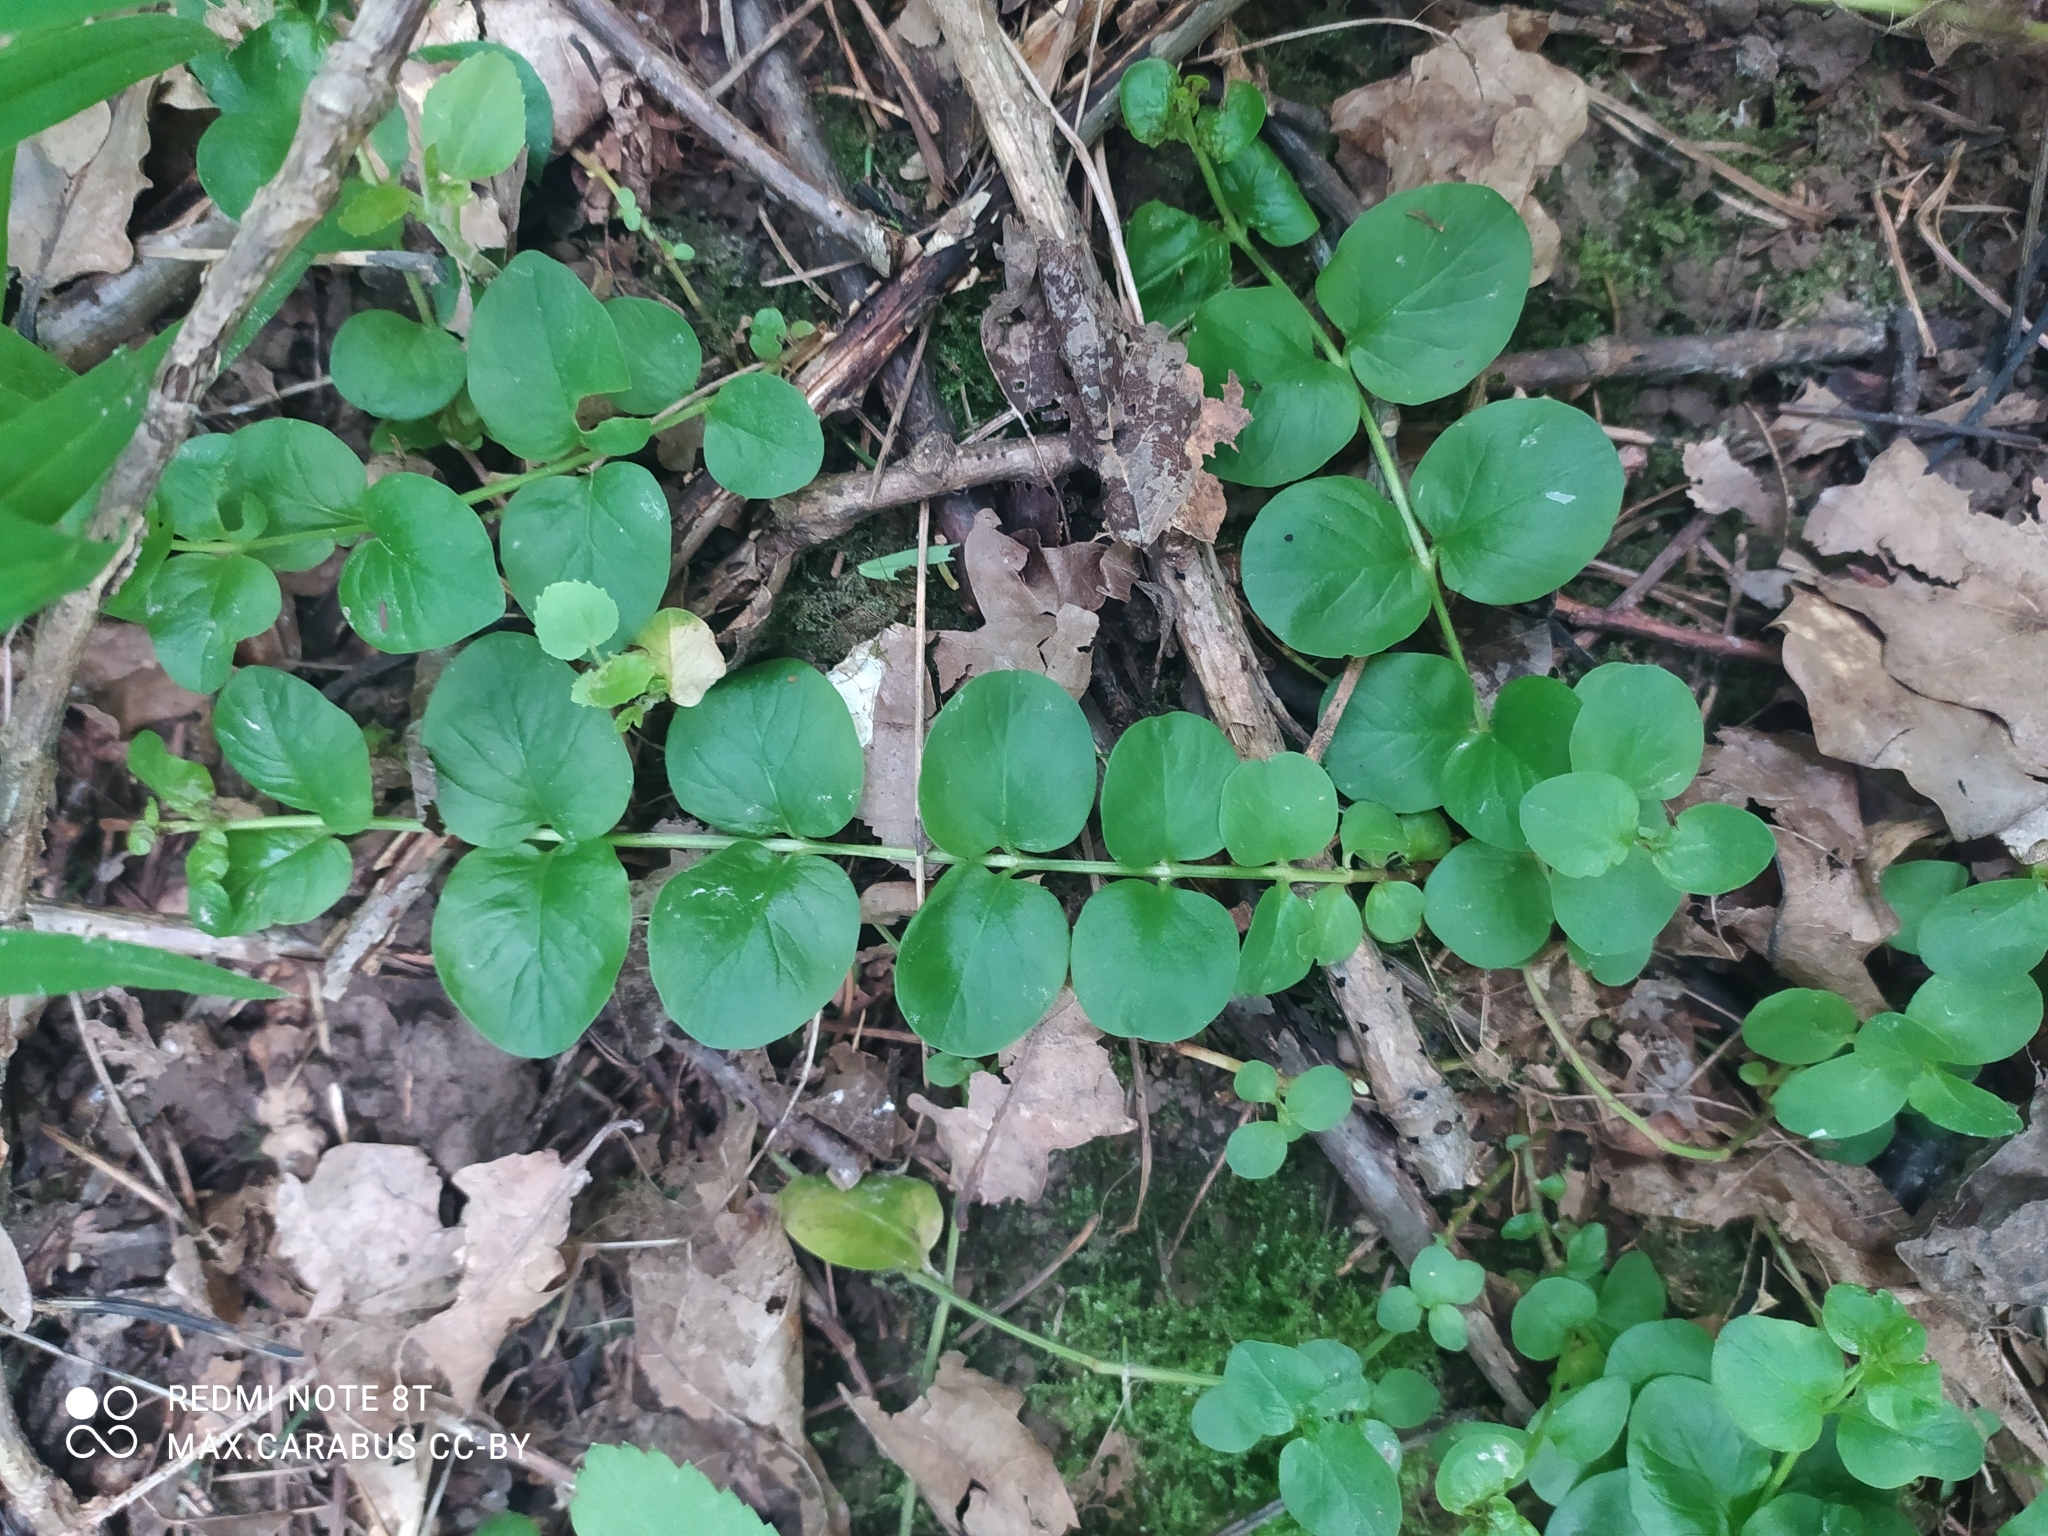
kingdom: Plantae
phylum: Tracheophyta
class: Magnoliopsida
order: Ericales
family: Primulaceae
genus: Lysimachia
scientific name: Lysimachia nummularia
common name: Moneywort
